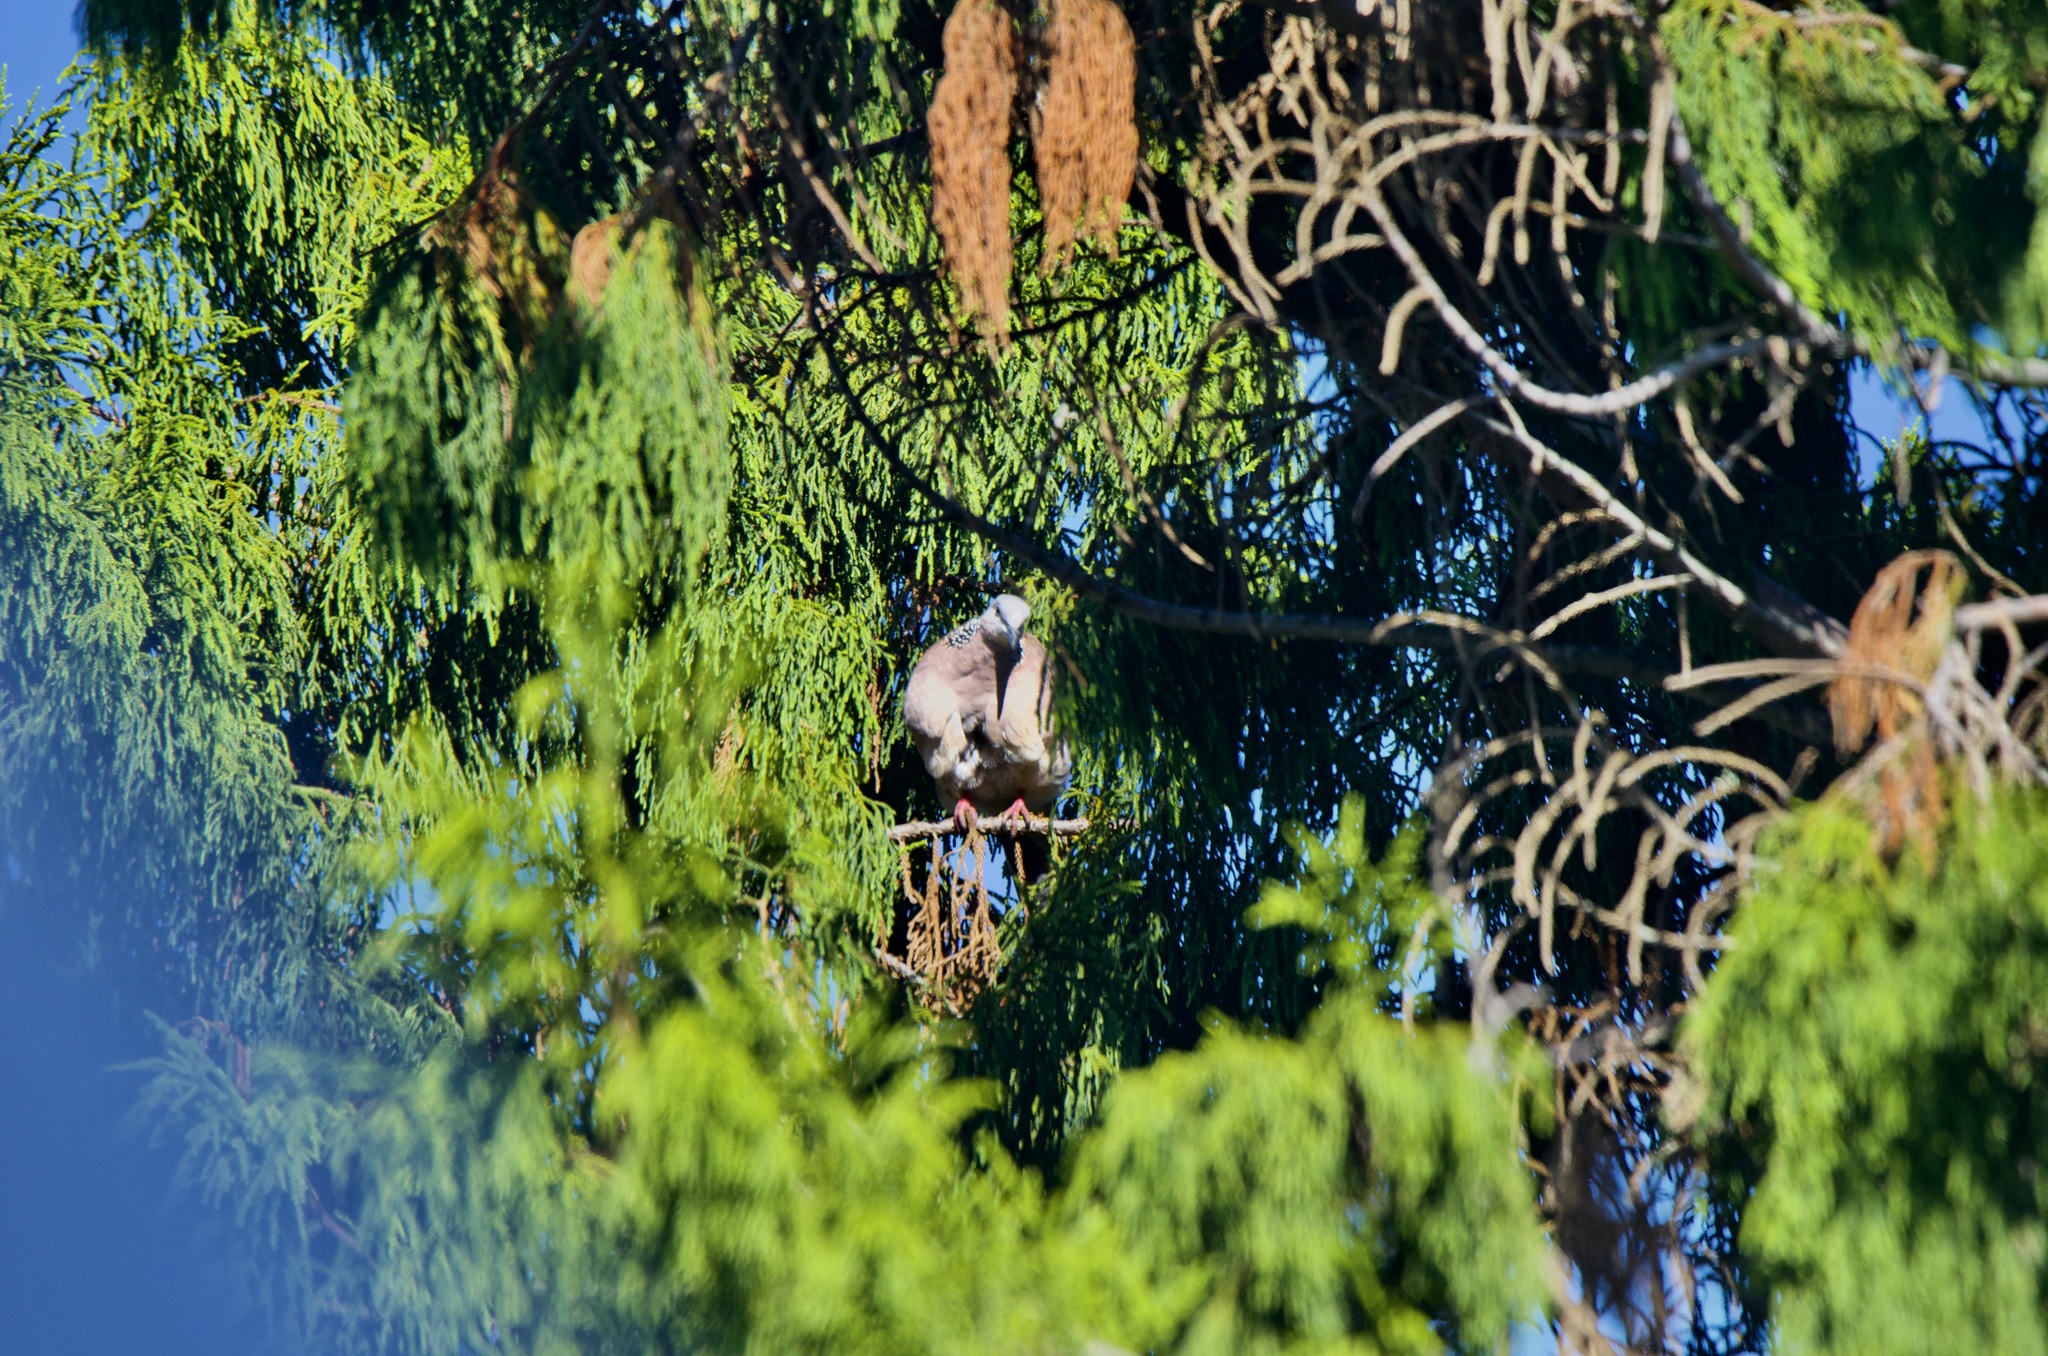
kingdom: Animalia
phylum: Chordata
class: Aves
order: Columbiformes
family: Columbidae
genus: Spilopelia
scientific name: Spilopelia chinensis
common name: Spotted dove
